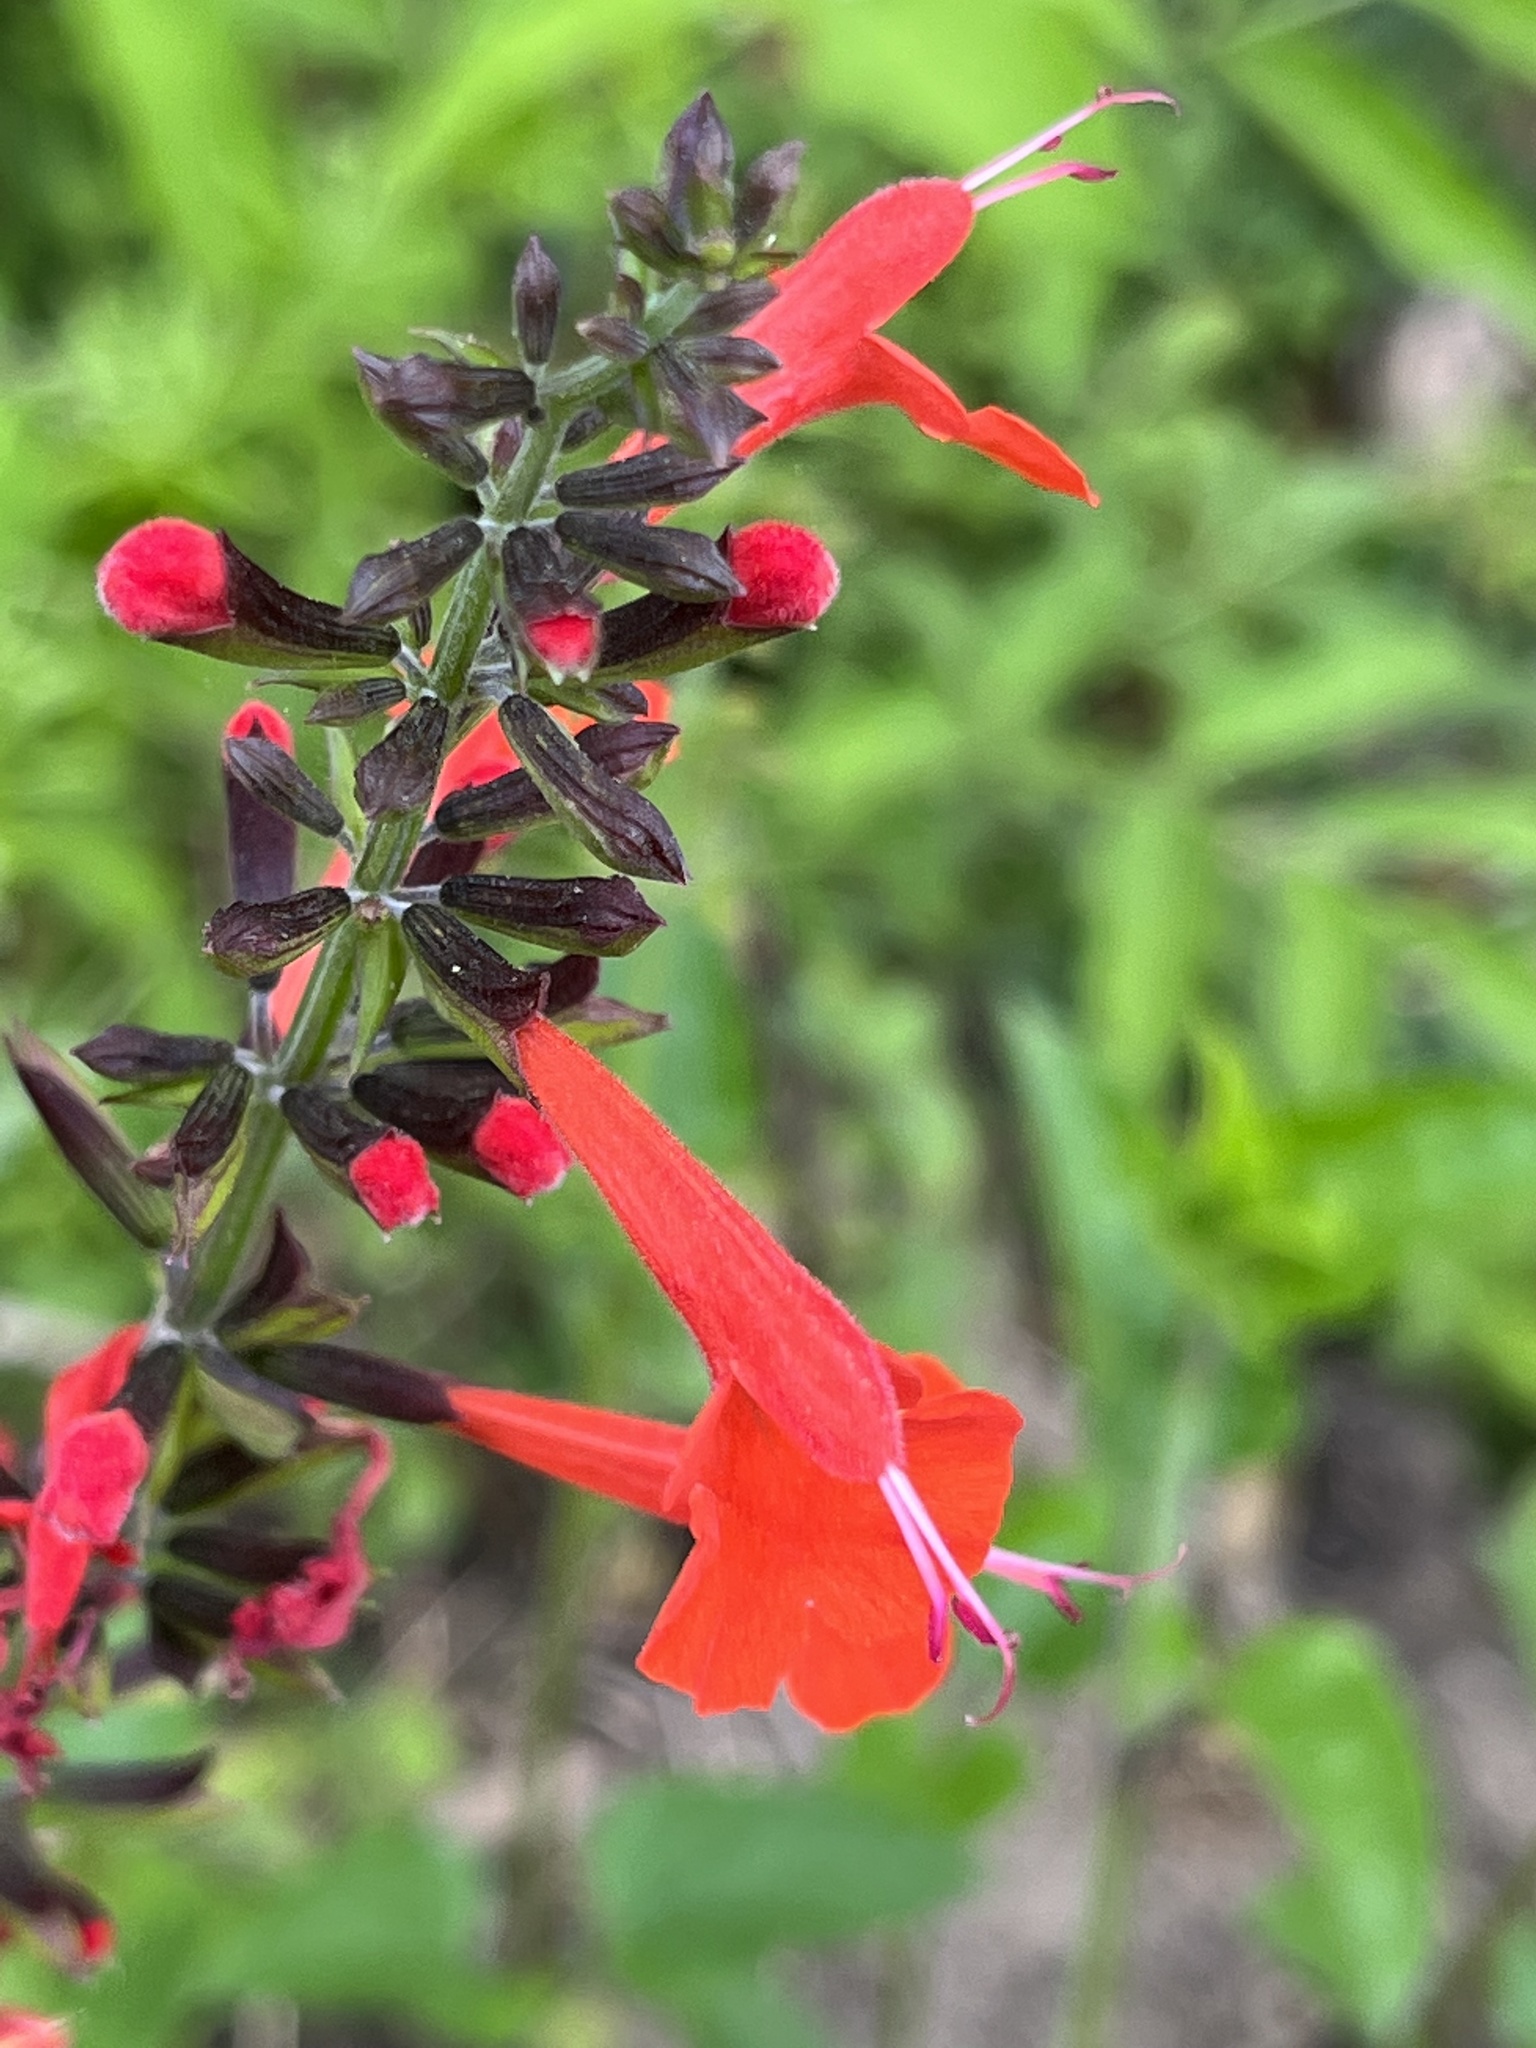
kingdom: Plantae
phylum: Tracheophyta
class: Magnoliopsida
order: Lamiales
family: Lamiaceae
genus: Salvia
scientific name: Salvia coccinea
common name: Blood sage
